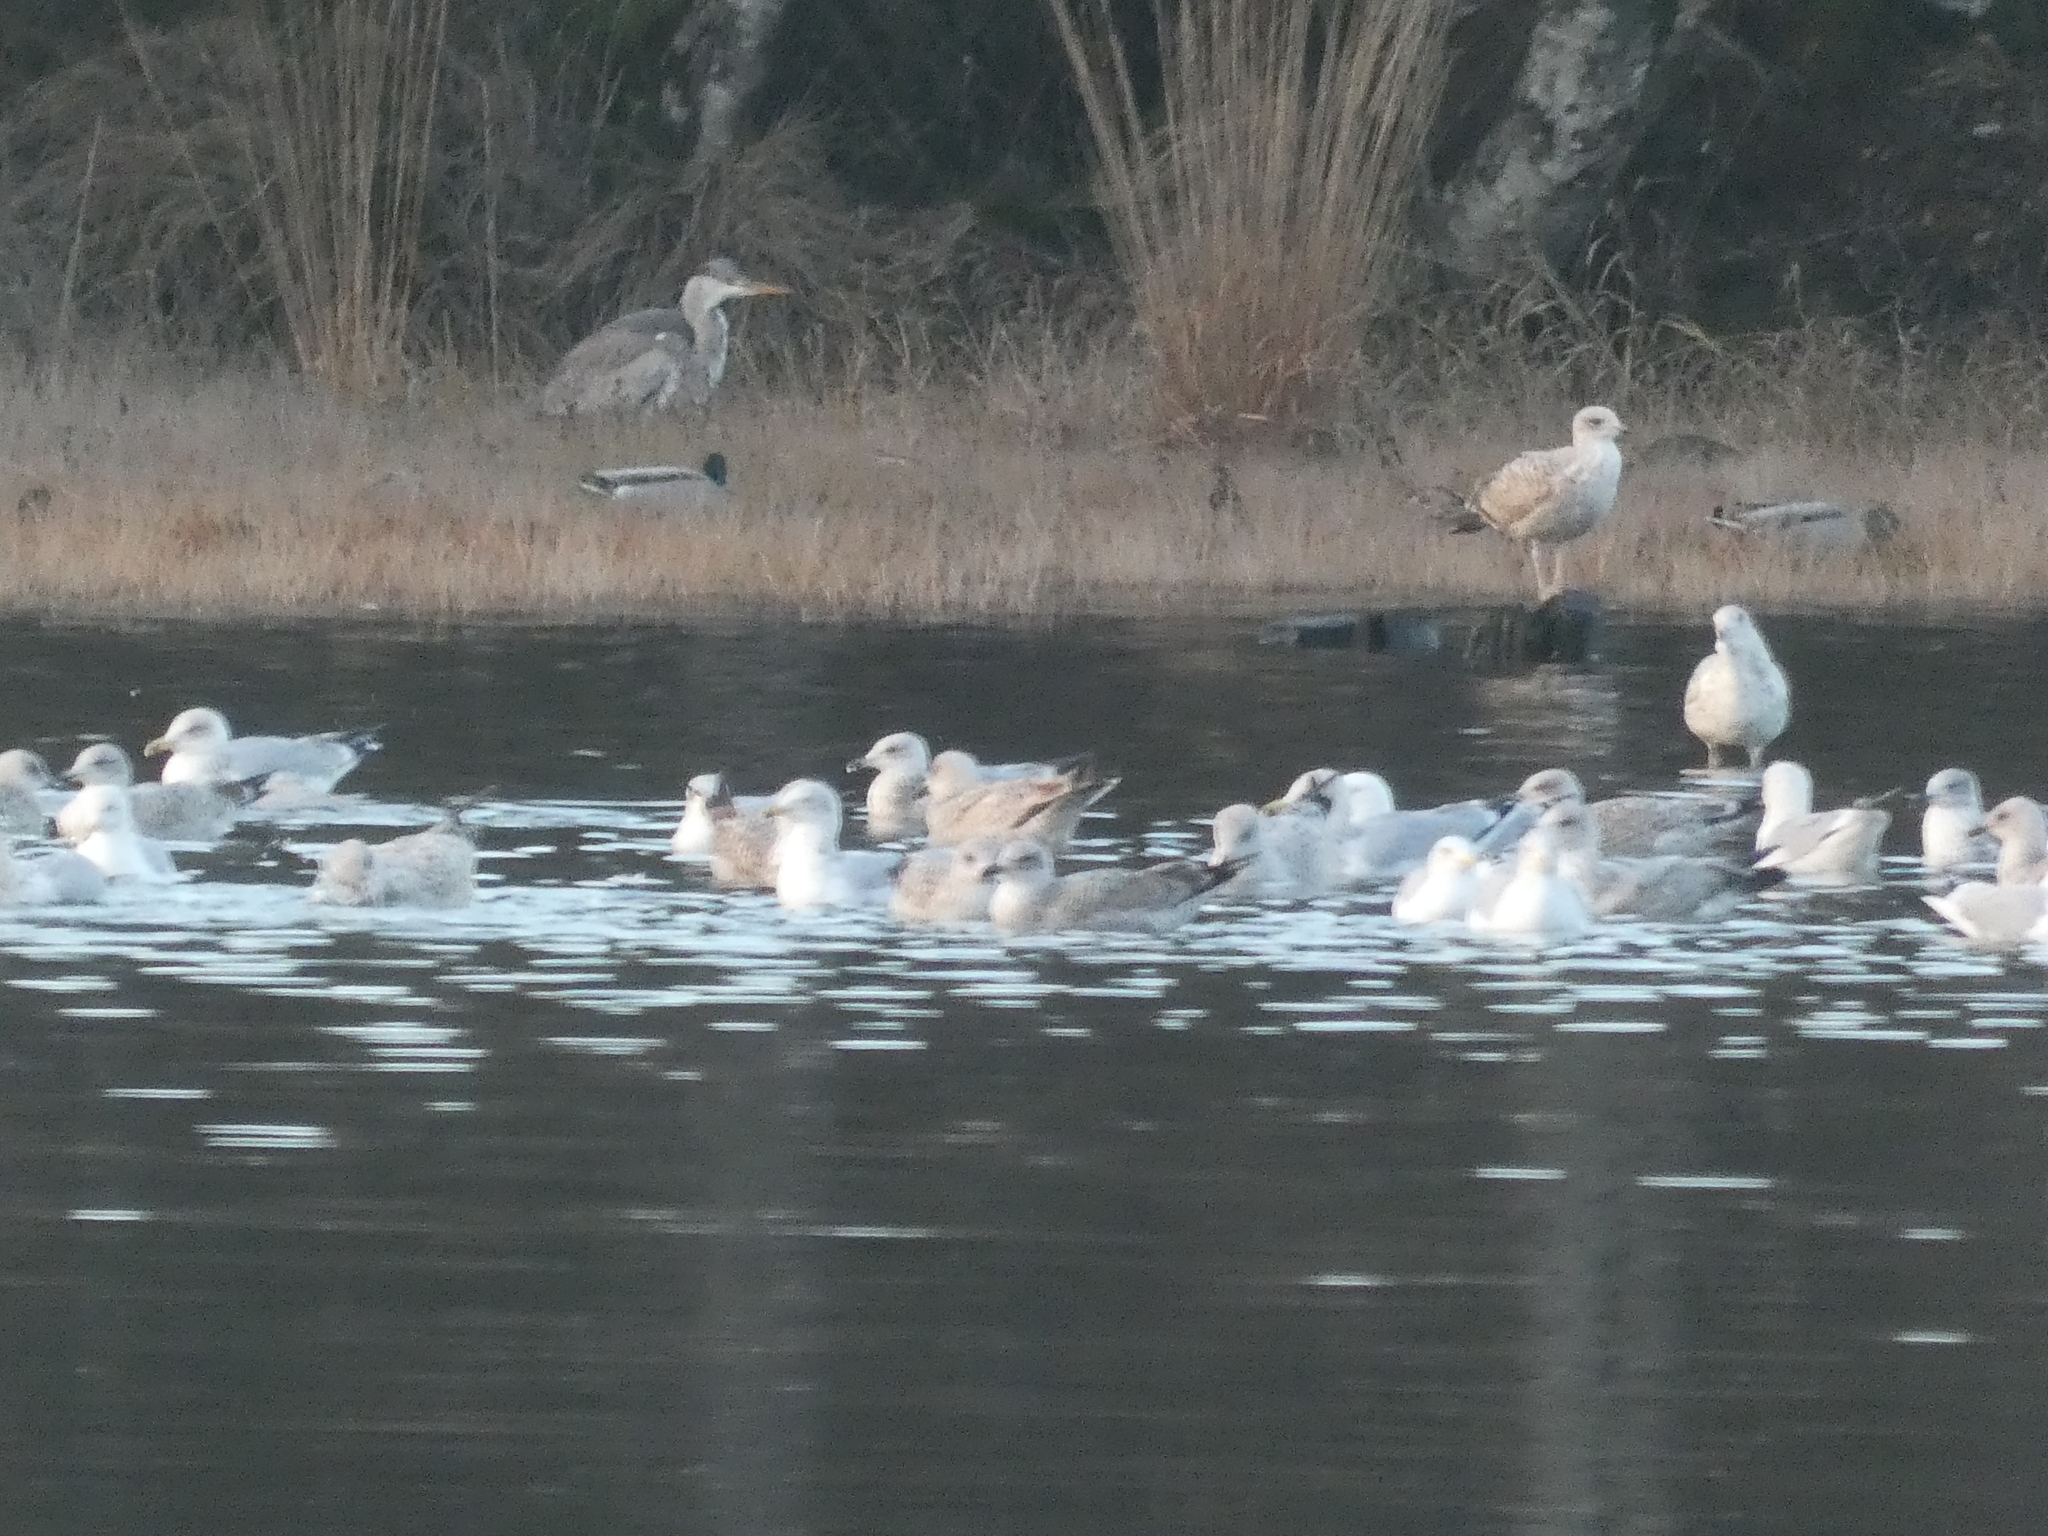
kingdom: Animalia
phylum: Chordata
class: Aves
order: Charadriiformes
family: Laridae
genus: Larus
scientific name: Larus argentatus
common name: Herring gull
